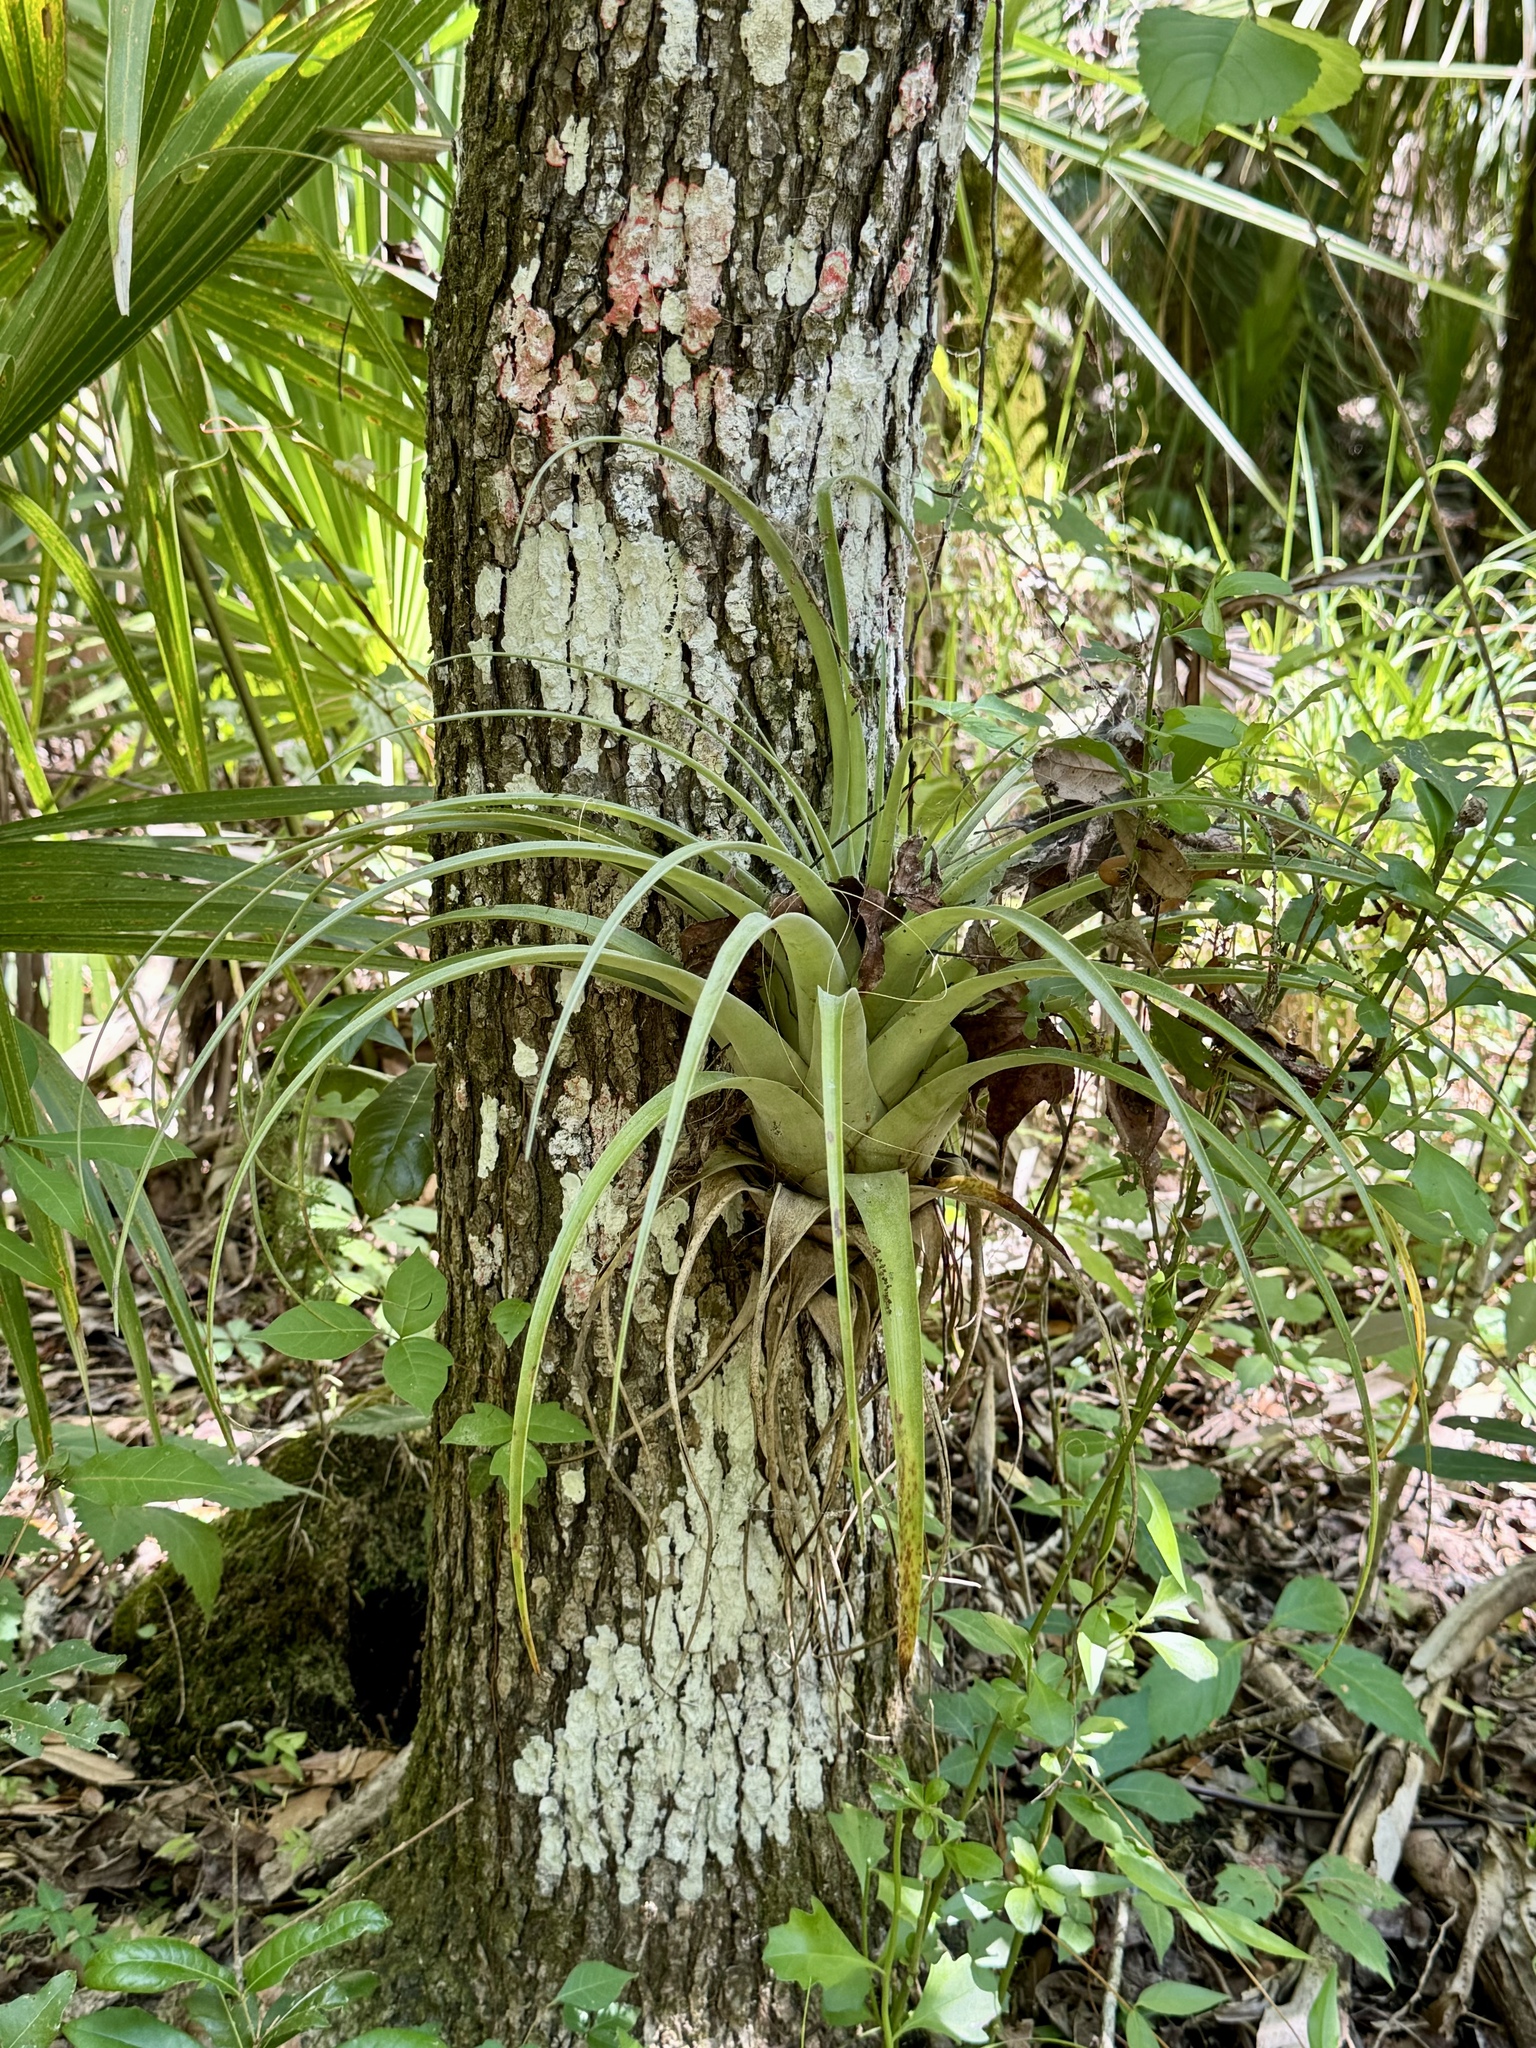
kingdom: Plantae
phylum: Tracheophyta
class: Liliopsida
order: Poales
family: Bromeliaceae
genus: Tillandsia
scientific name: Tillandsia utriculata
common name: Wild pine
